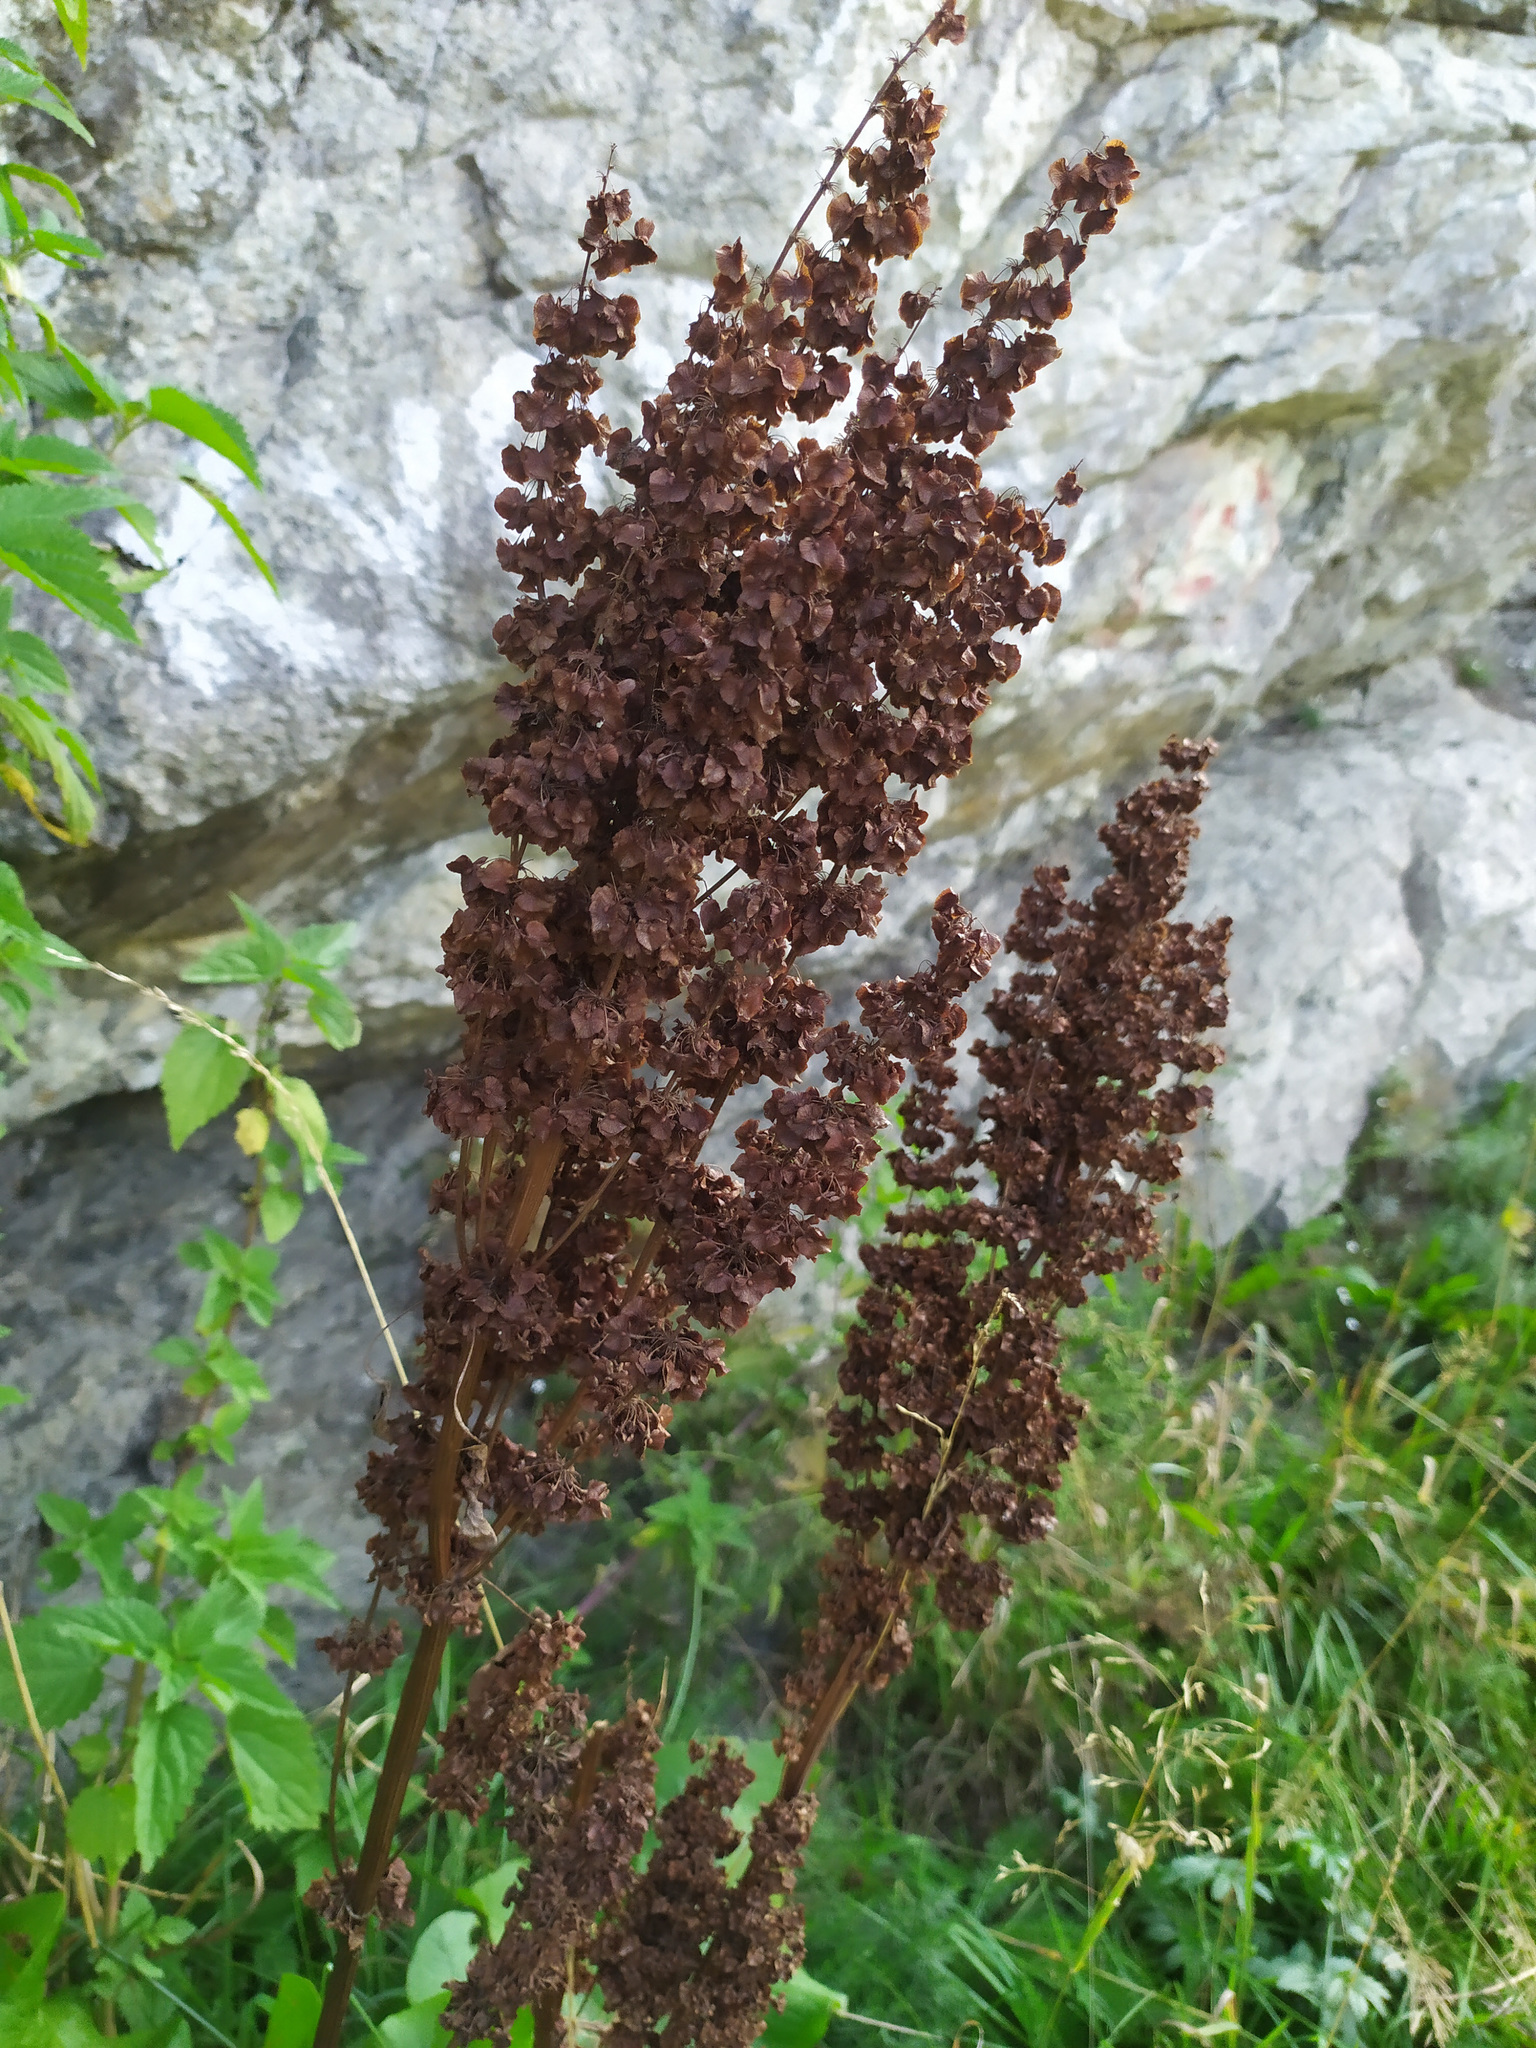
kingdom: Plantae
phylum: Tracheophyta
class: Magnoliopsida
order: Caryophyllales
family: Polygonaceae
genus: Rumex
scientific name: Rumex confertus
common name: Russian dock
